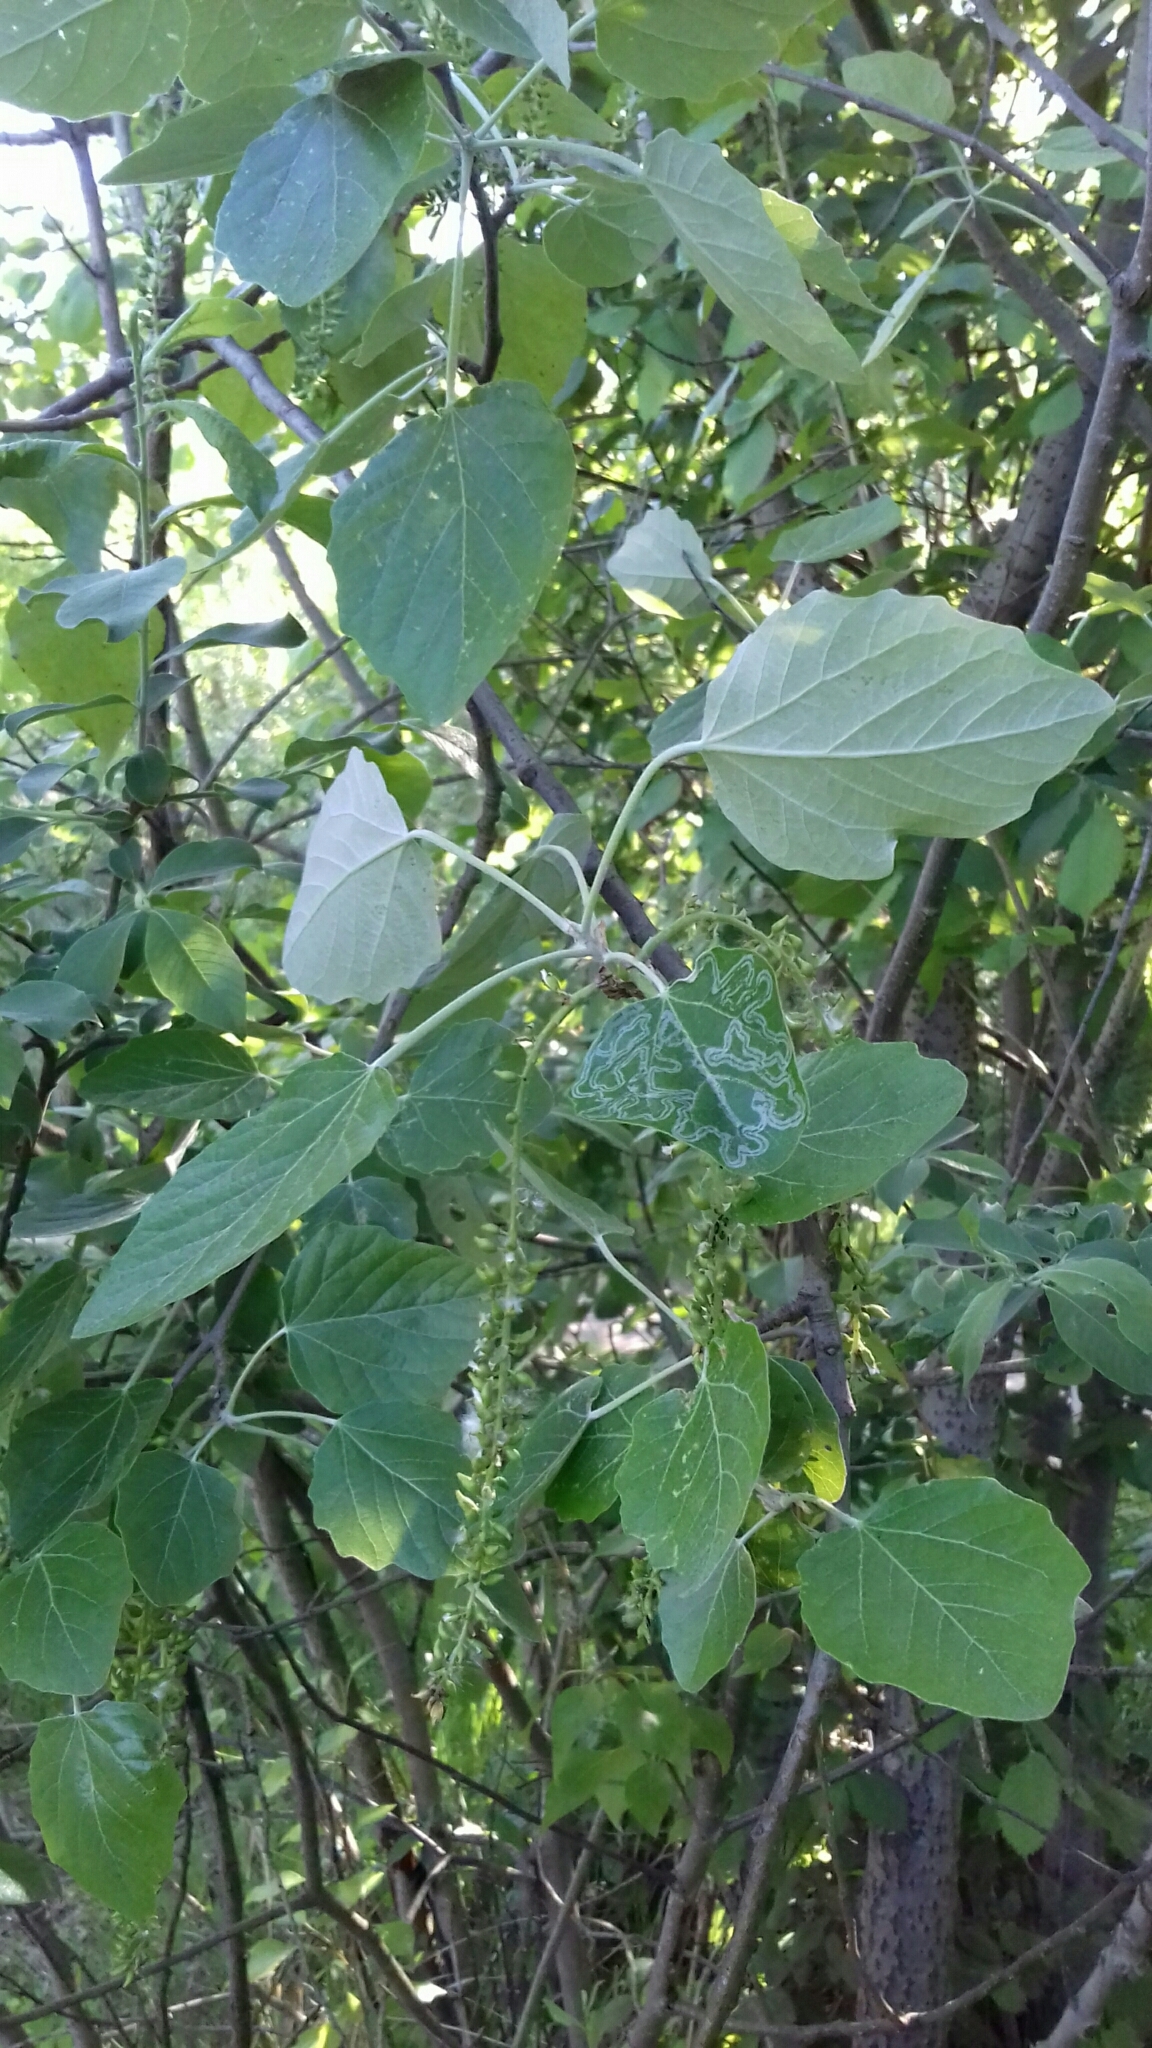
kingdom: Plantae
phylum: Tracheophyta
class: Magnoliopsida
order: Malpighiales
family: Salicaceae
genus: Populus
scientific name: Populus alba
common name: White poplar
